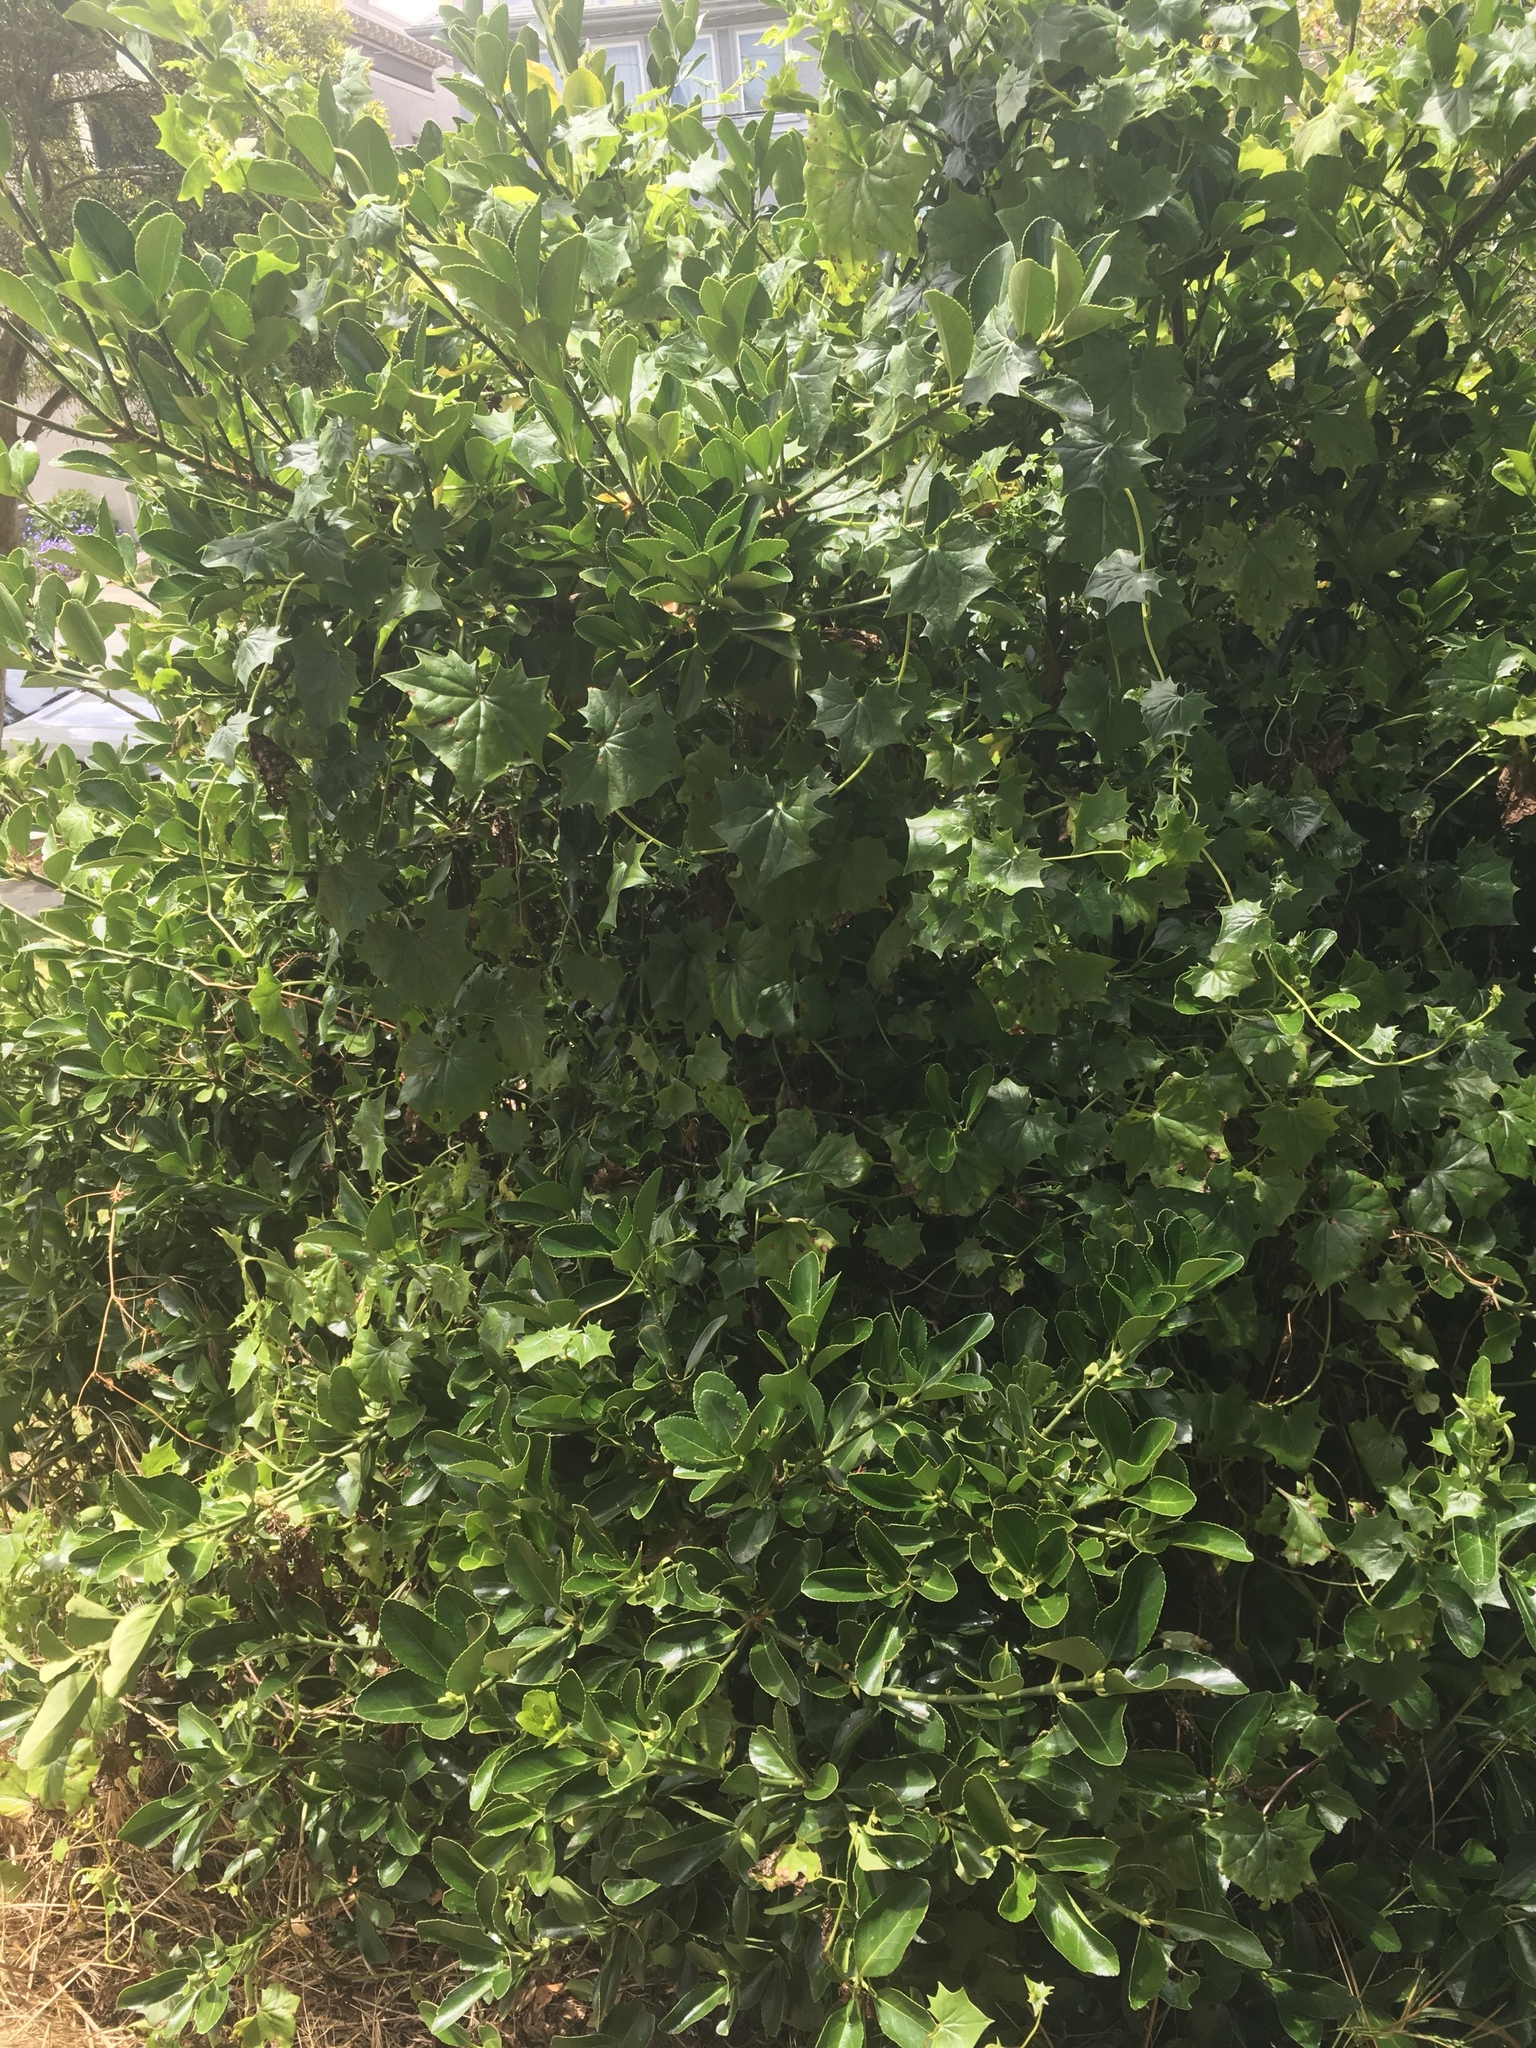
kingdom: Plantae
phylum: Tracheophyta
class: Magnoliopsida
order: Asterales
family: Asteraceae
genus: Delairea
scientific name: Delairea odorata
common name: Cape-ivy
